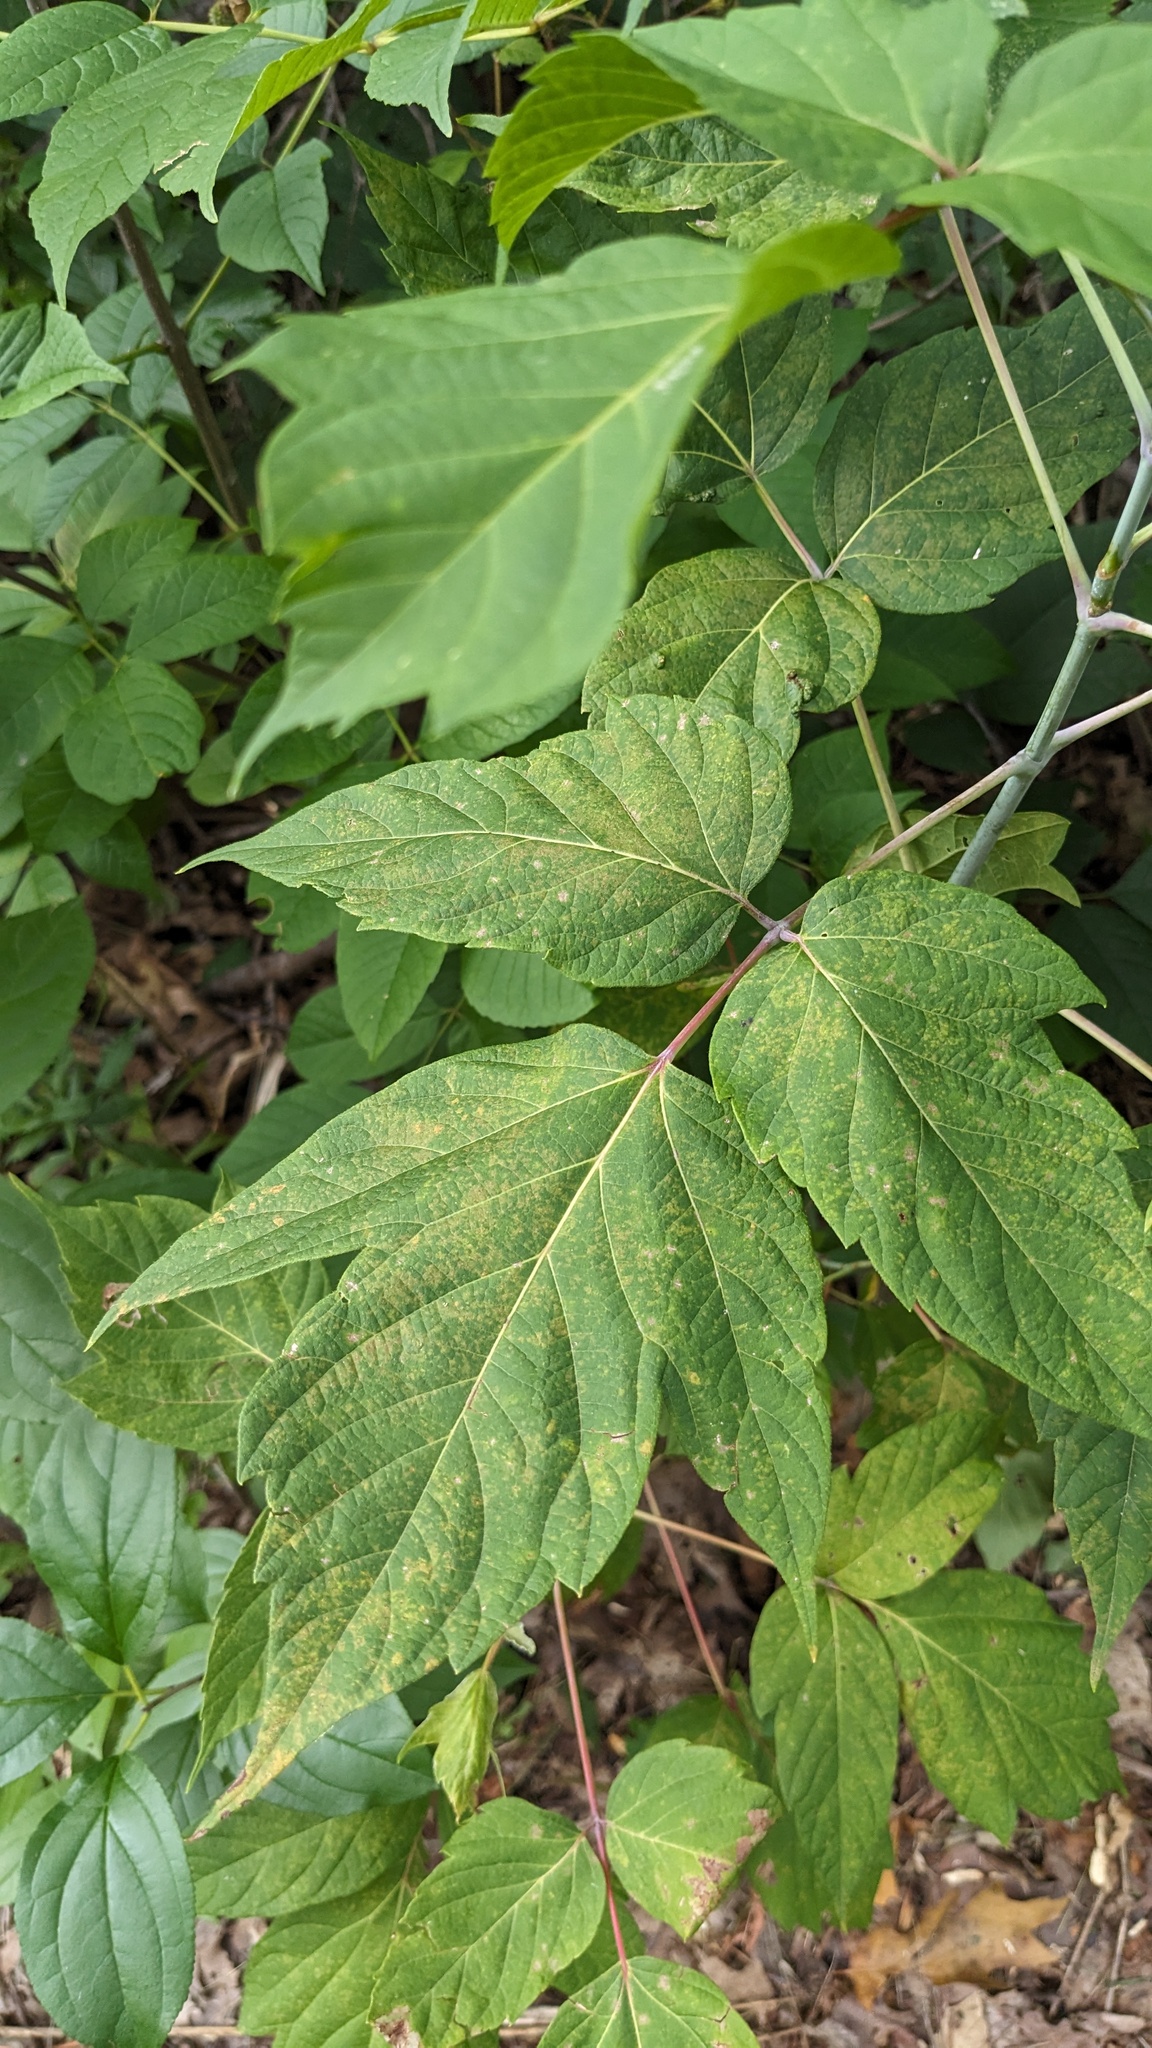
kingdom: Plantae
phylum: Tracheophyta
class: Magnoliopsida
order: Sapindales
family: Sapindaceae
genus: Acer
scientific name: Acer negundo
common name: Ashleaf maple
